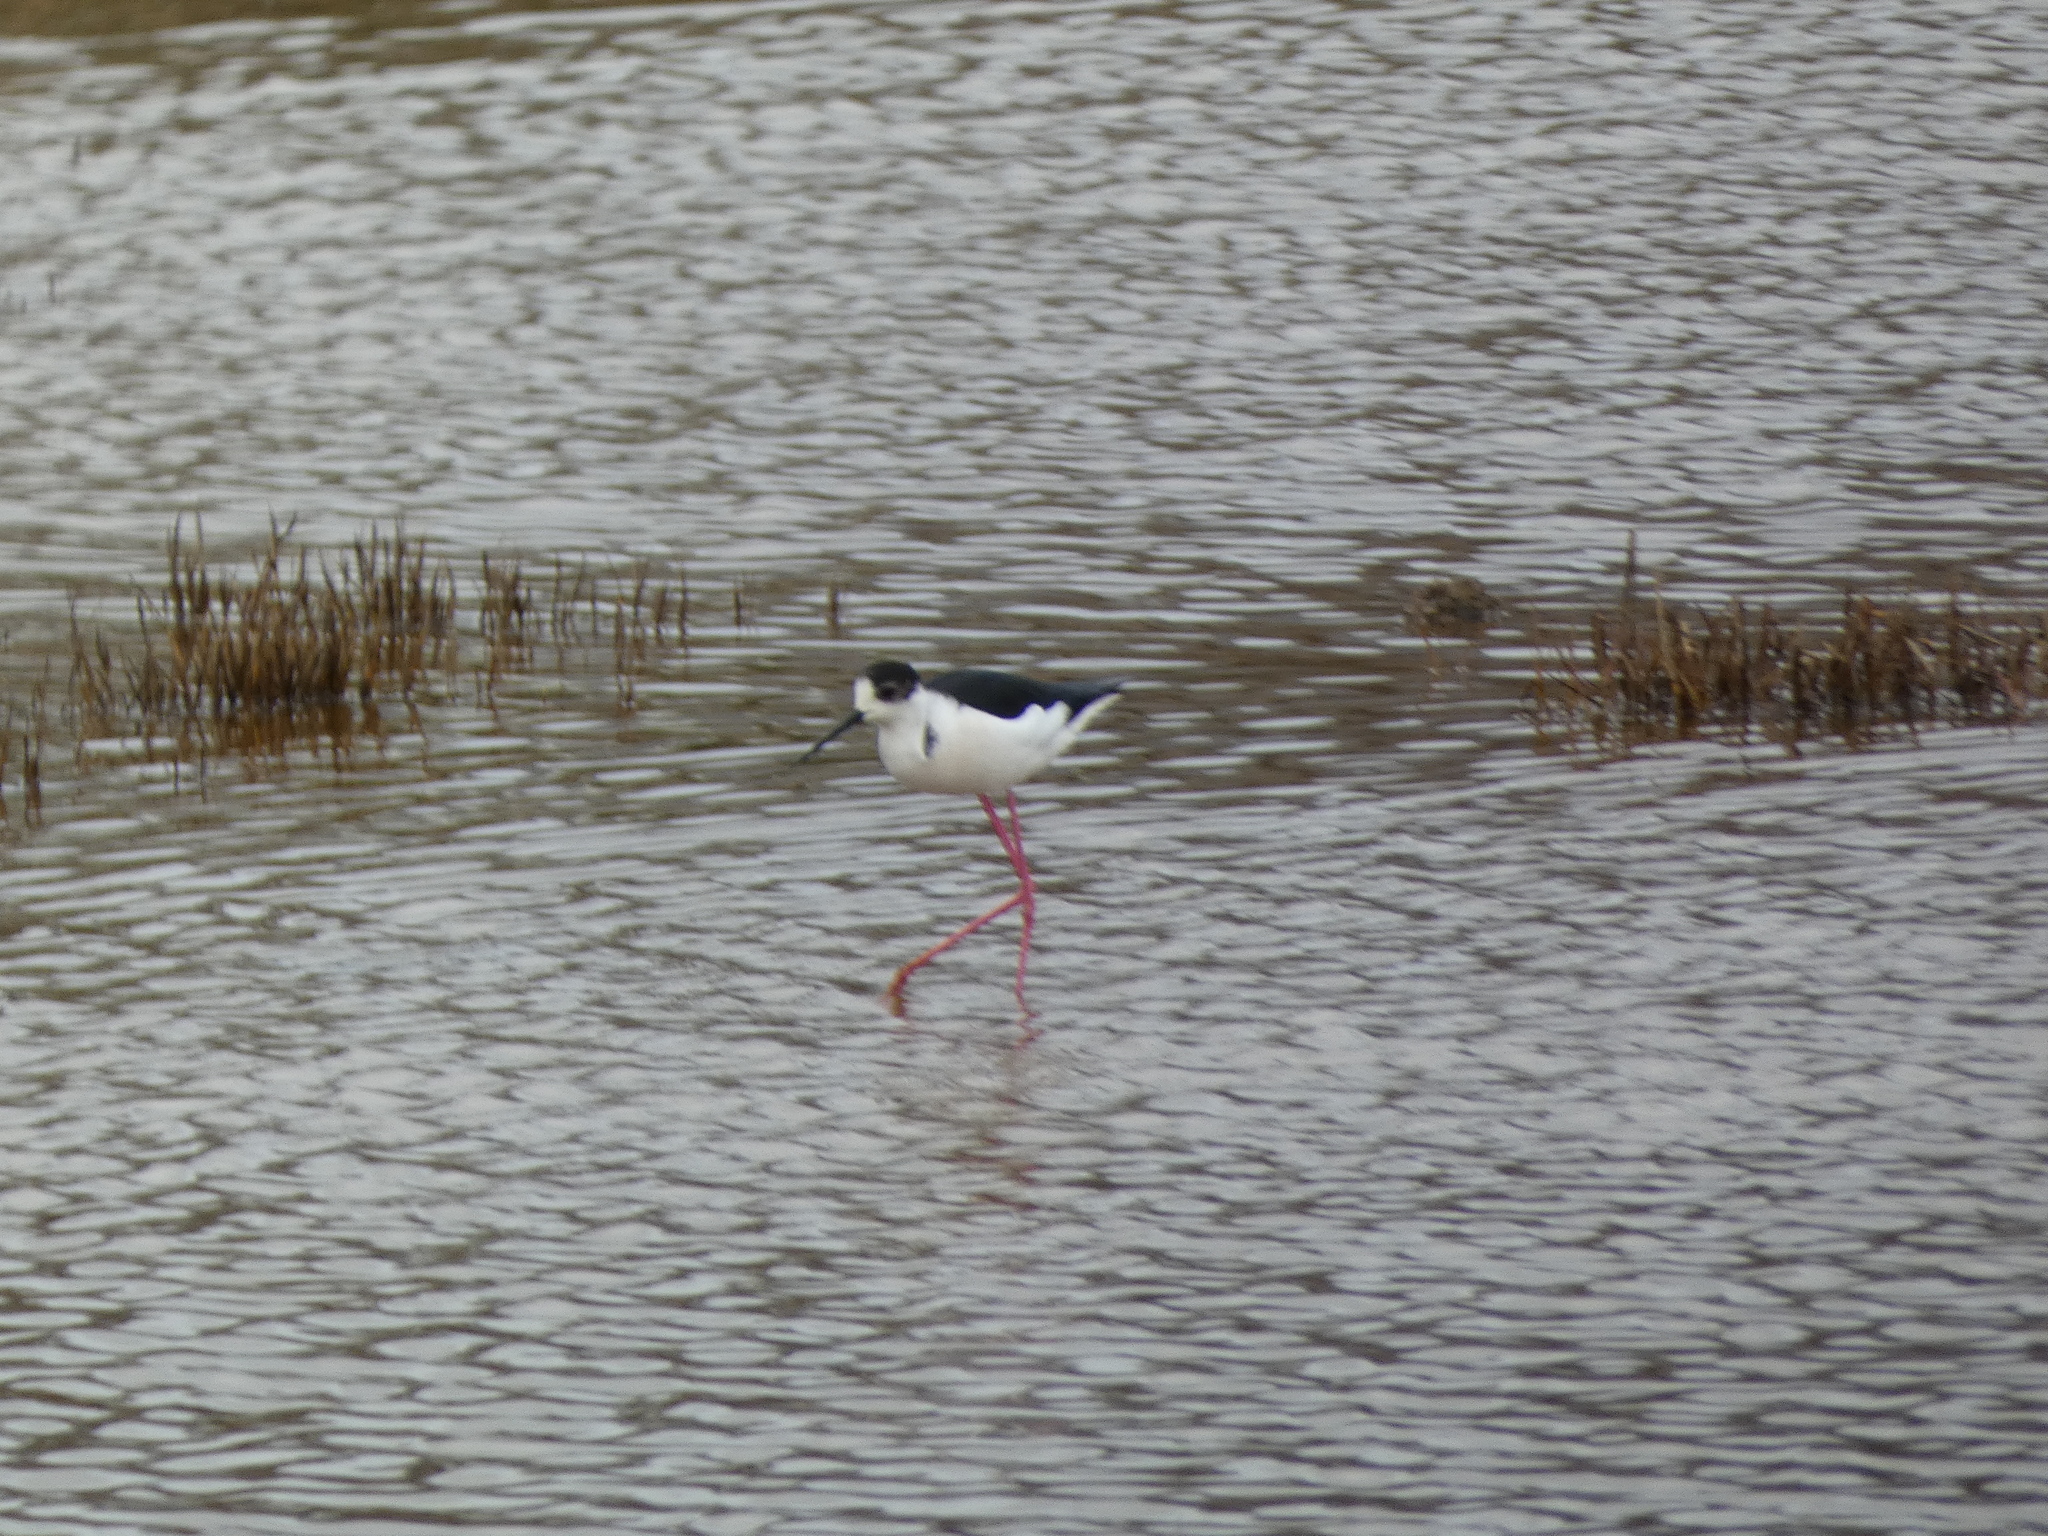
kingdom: Animalia
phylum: Chordata
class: Aves
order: Charadriiformes
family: Recurvirostridae
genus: Himantopus
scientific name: Himantopus himantopus
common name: Black-winged stilt
